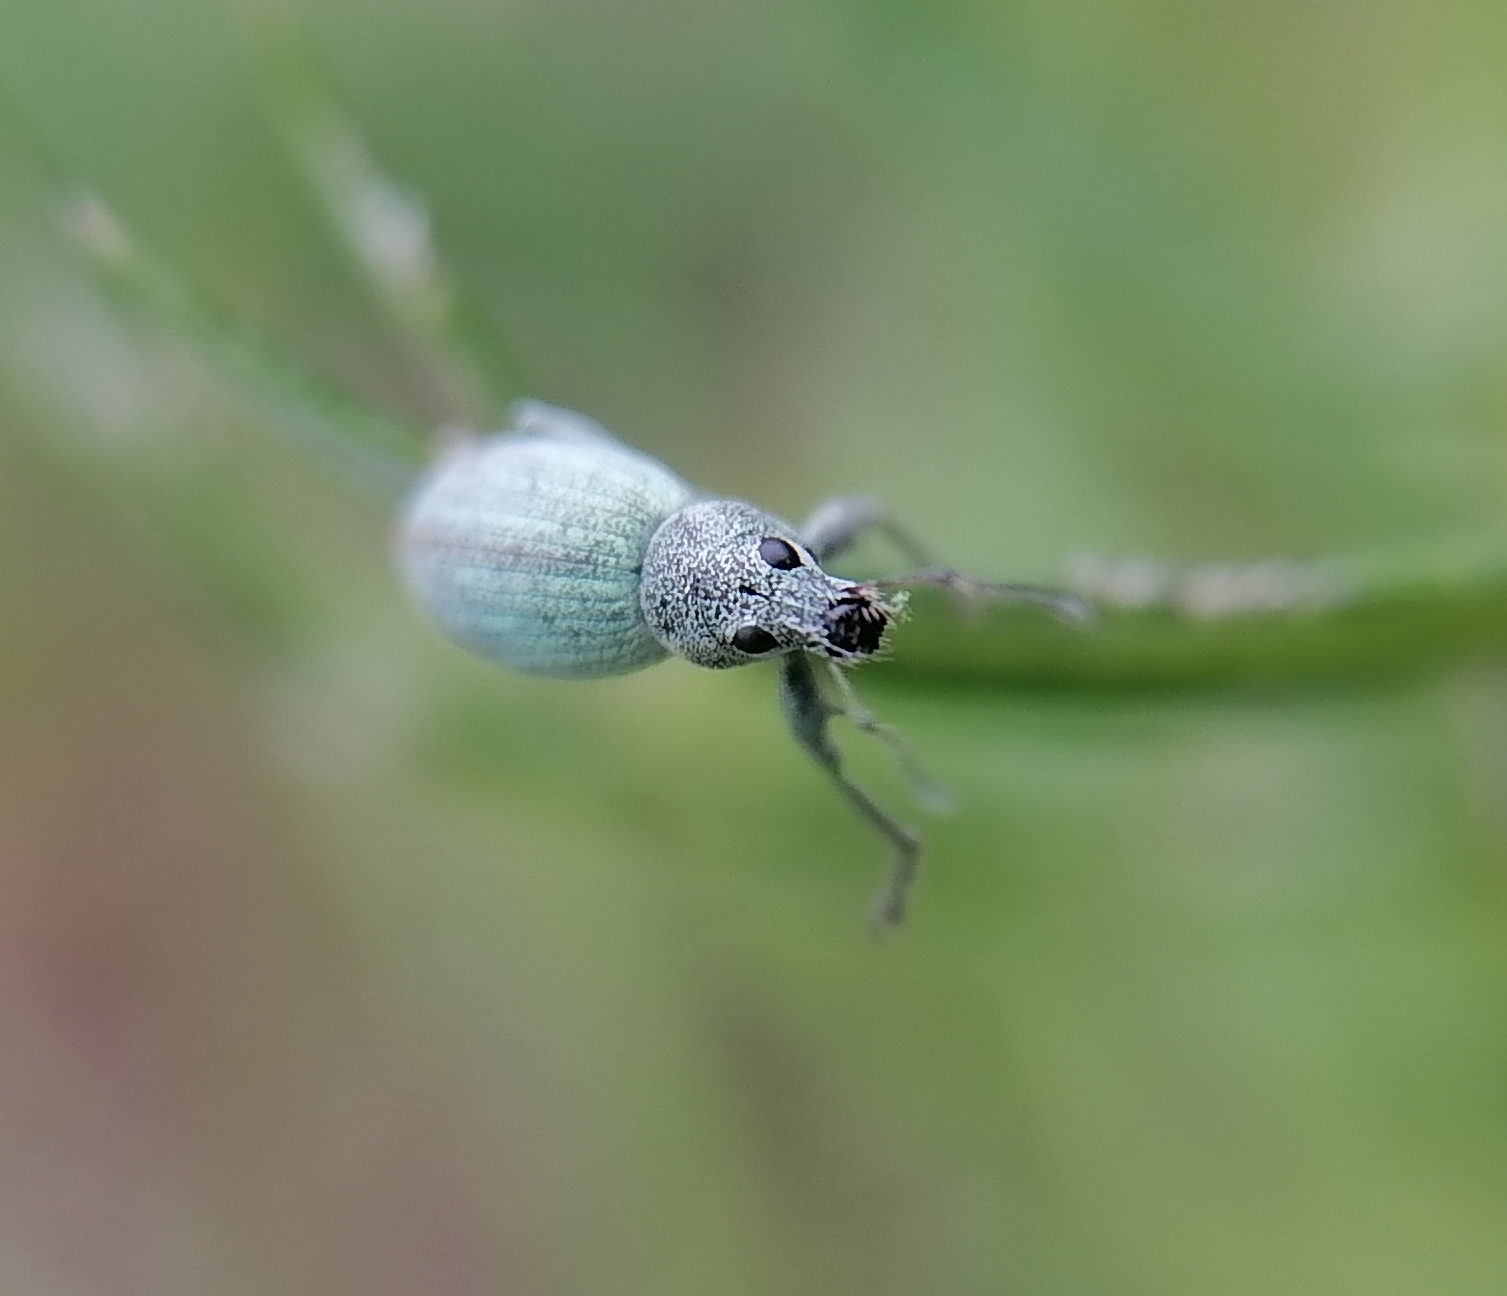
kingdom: Animalia
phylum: Arthropoda
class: Insecta
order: Coleoptera
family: Curculionidae
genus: Eusomus
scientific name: Eusomus ovulum
